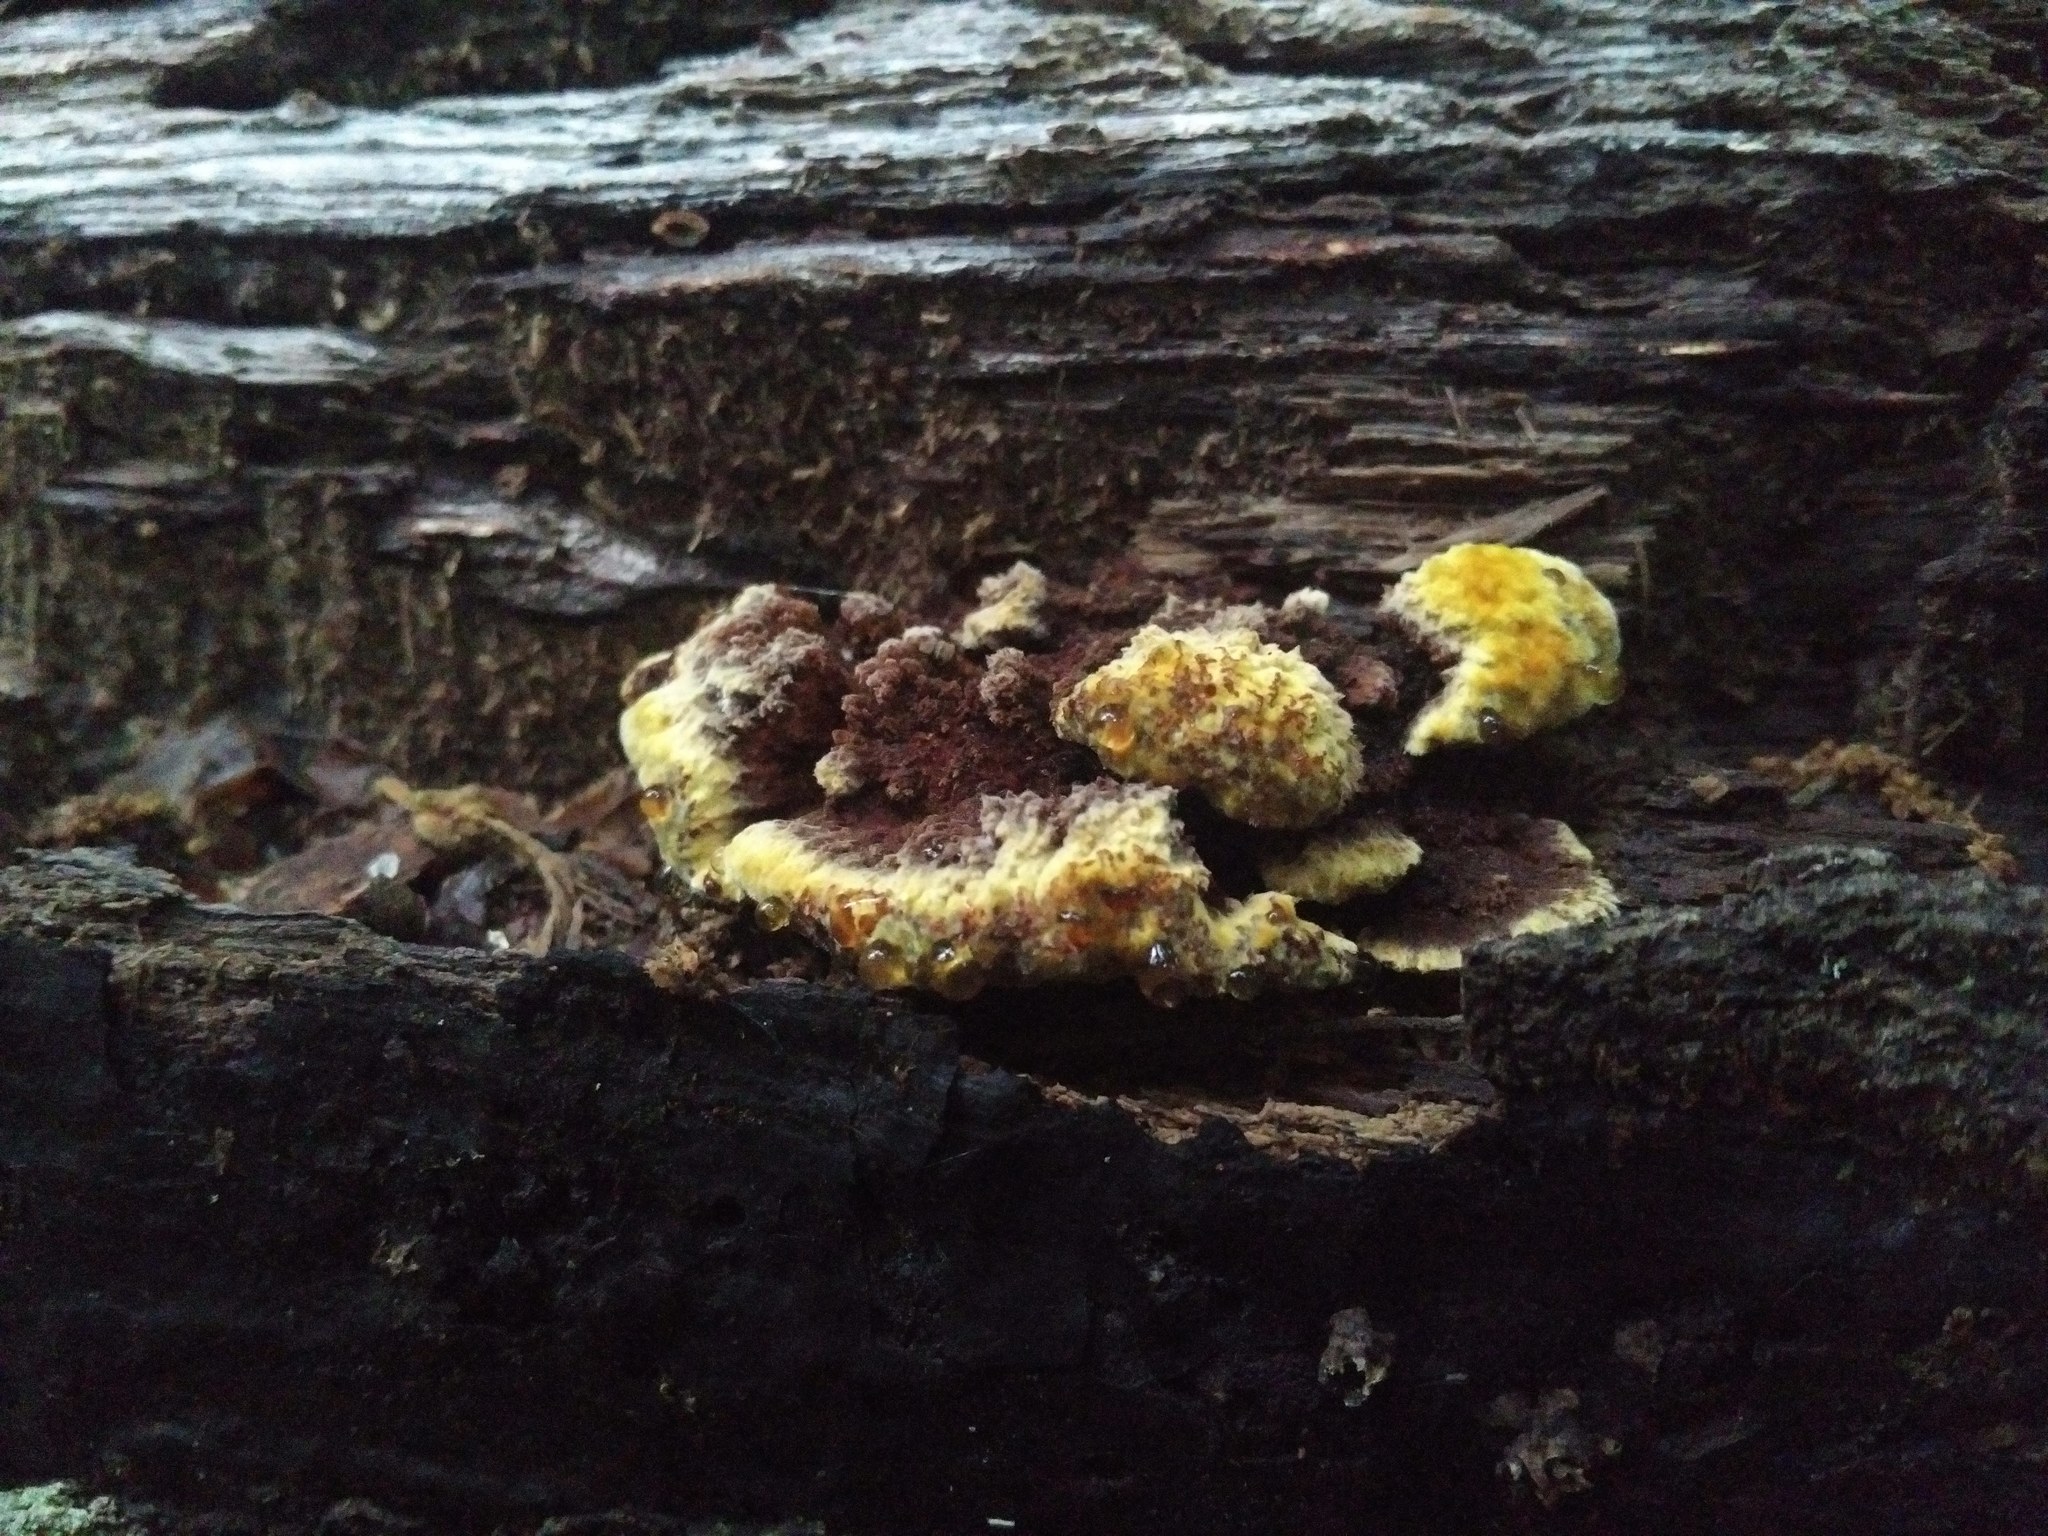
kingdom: Fungi
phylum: Basidiomycota
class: Agaricomycetes
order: Hymenochaetales
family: Hymenochaetaceae
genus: Phellinus
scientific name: Phellinus gilvus
